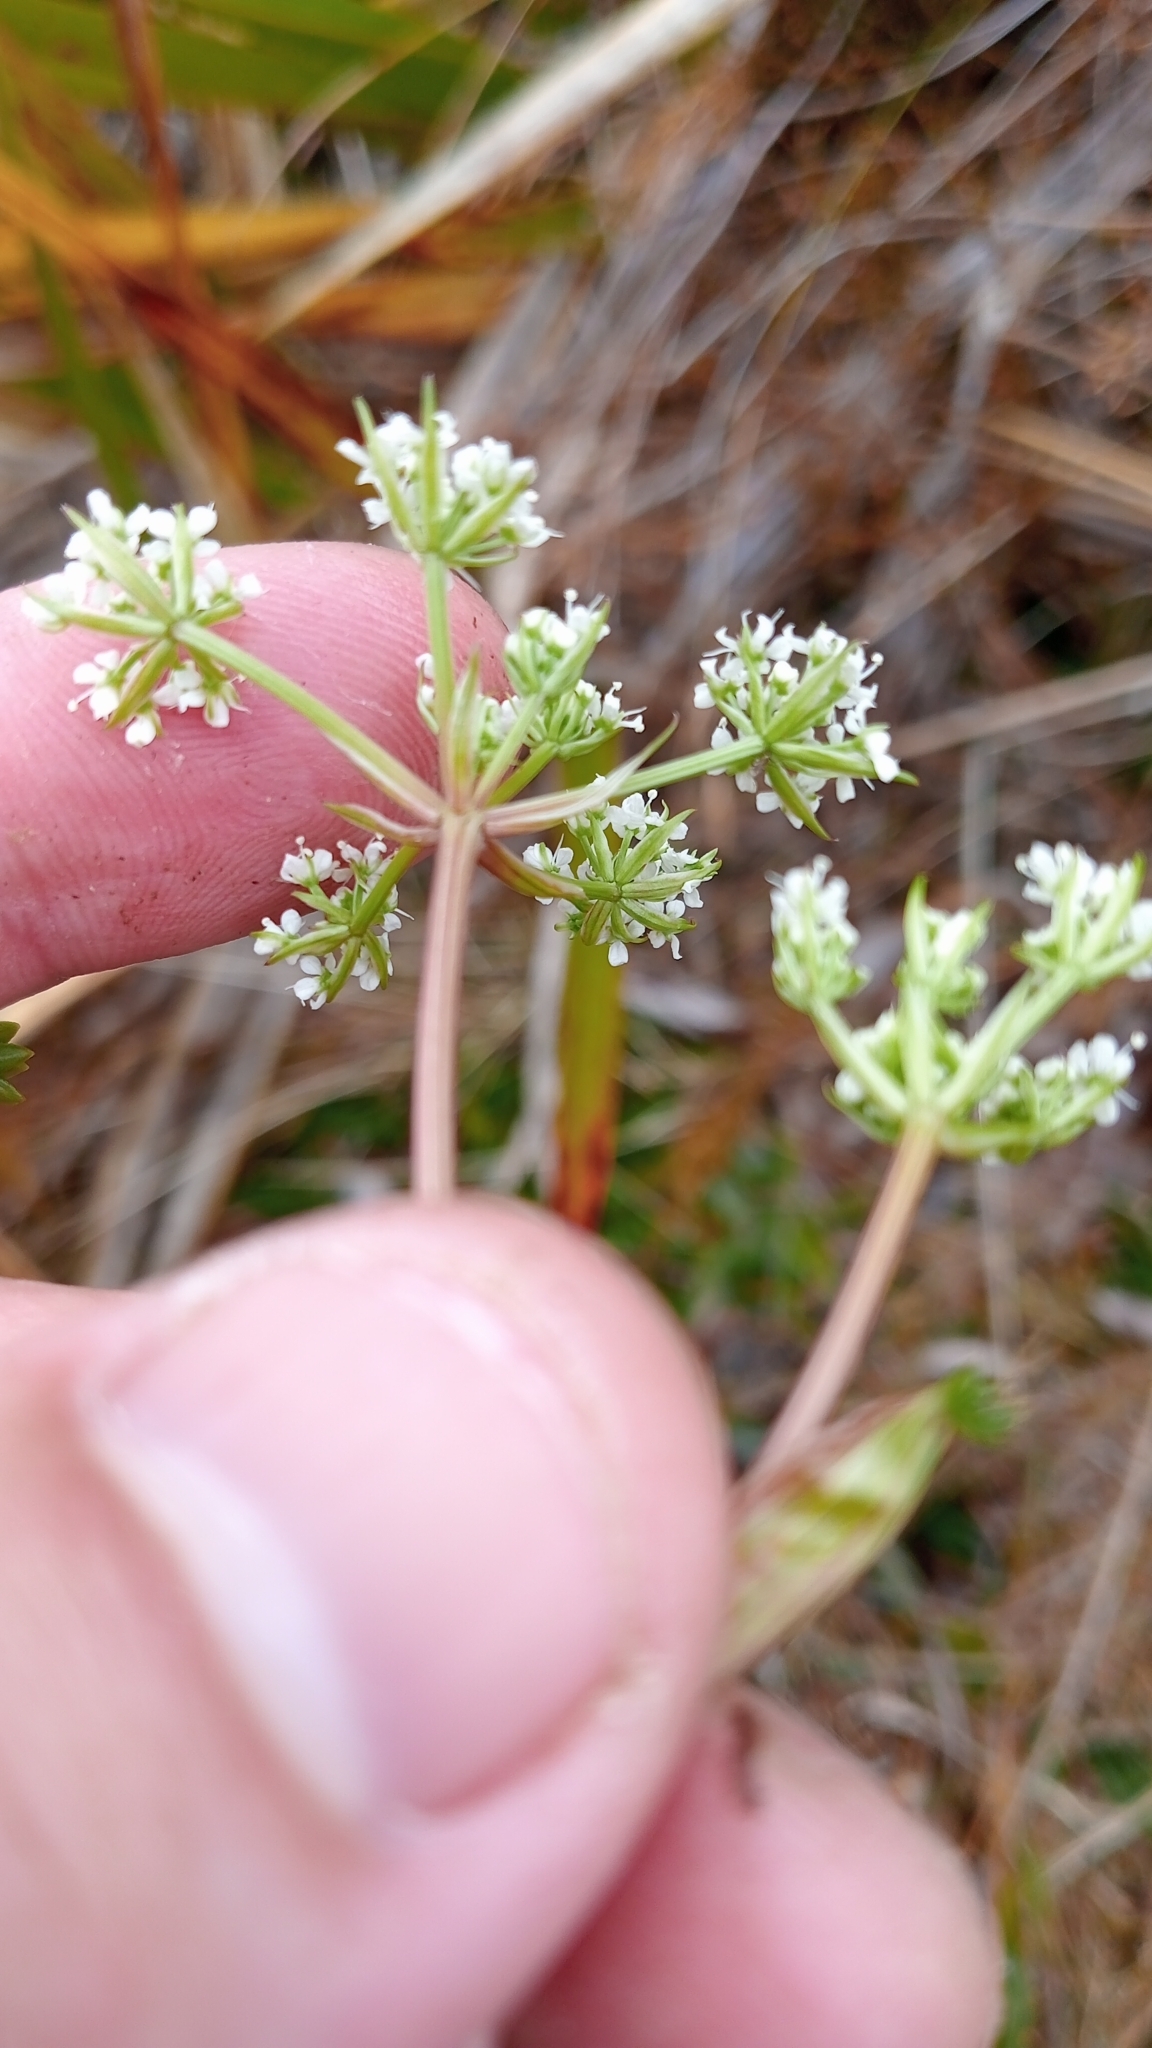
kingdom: Plantae
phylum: Tracheophyta
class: Magnoliopsida
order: Apiales
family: Apiaceae
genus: Anisotome
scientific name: Anisotome aromatica
